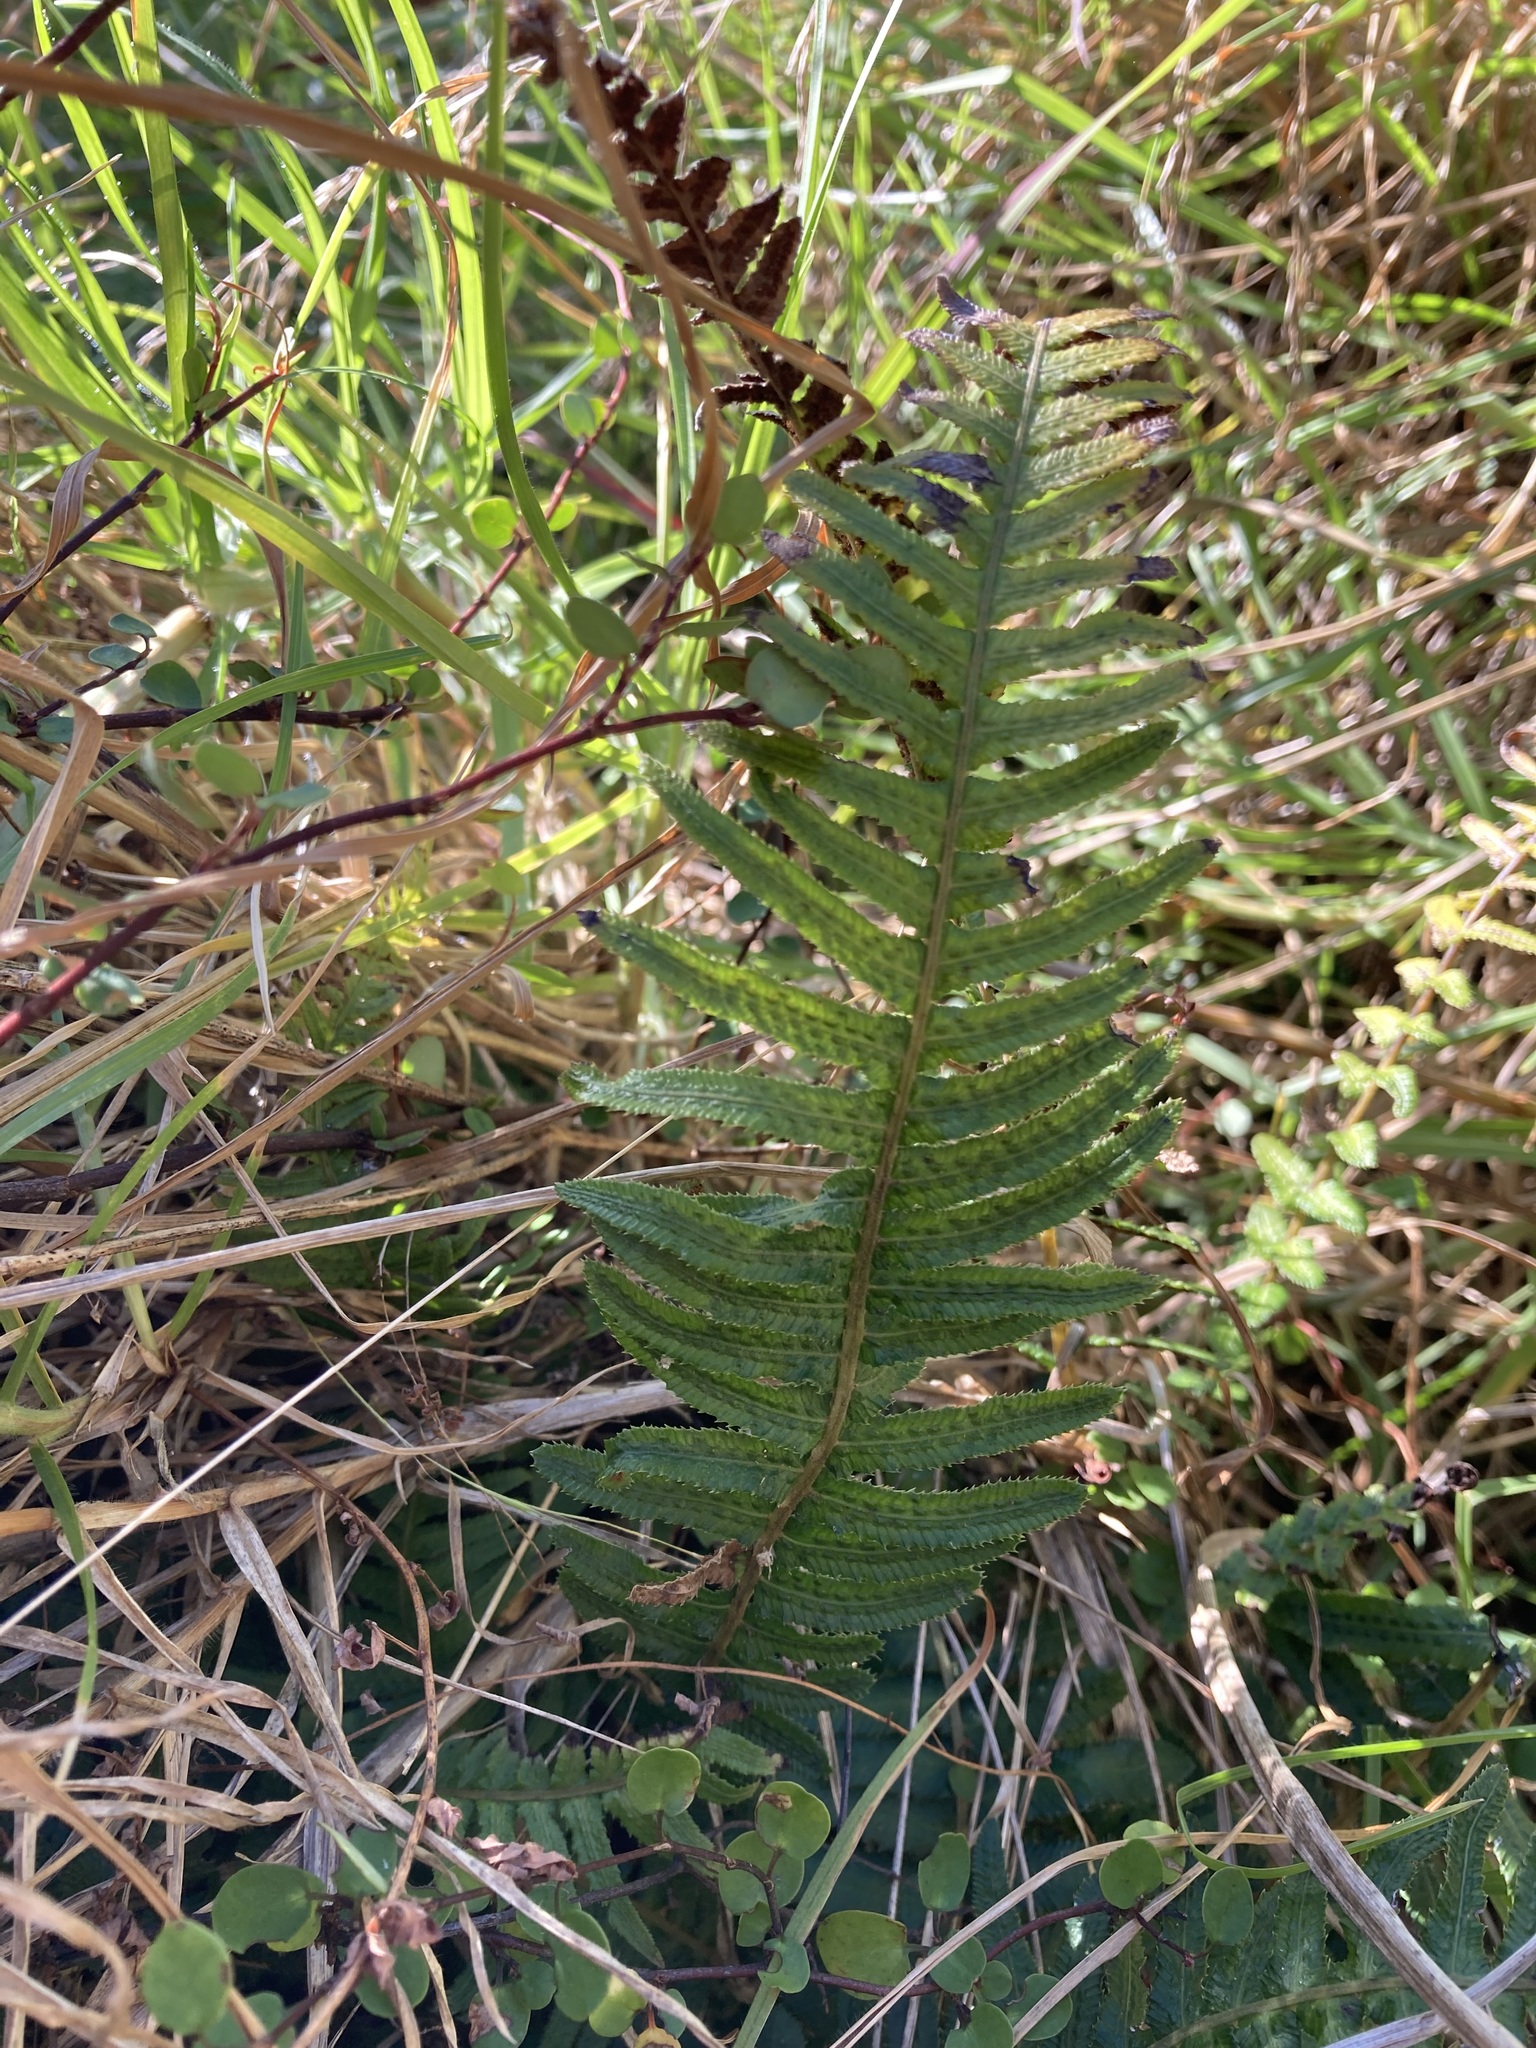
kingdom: Plantae
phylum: Tracheophyta
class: Polypodiopsida
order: Polypodiales
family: Blechnaceae
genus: Doodia
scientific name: Doodia australis
